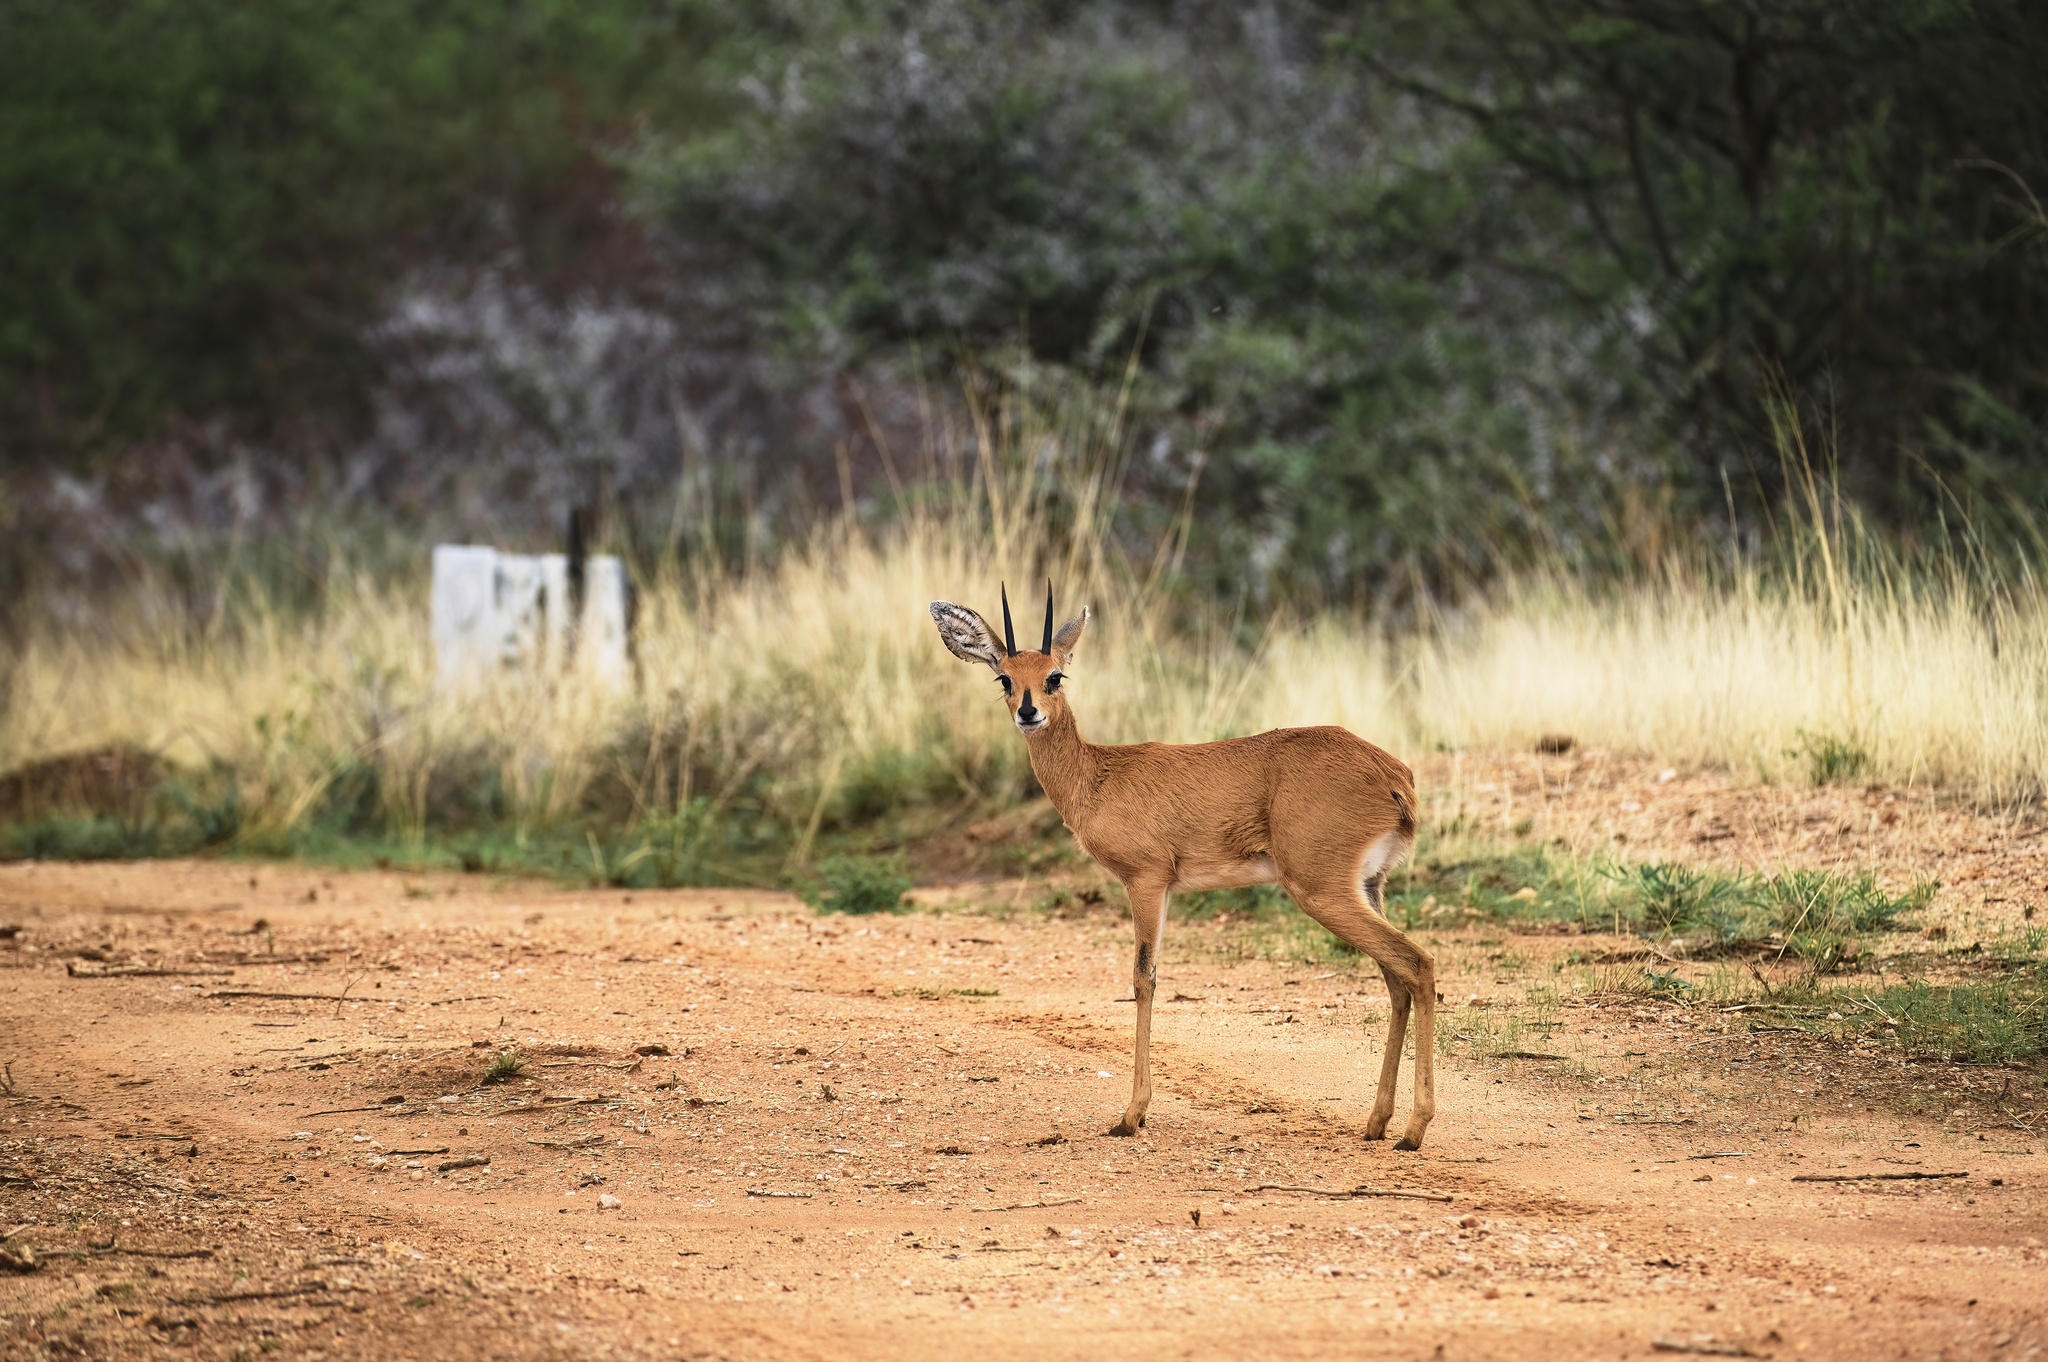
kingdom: Animalia
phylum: Chordata
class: Mammalia
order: Artiodactyla
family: Bovidae
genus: Raphicerus
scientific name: Raphicerus campestris
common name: Steenbok
